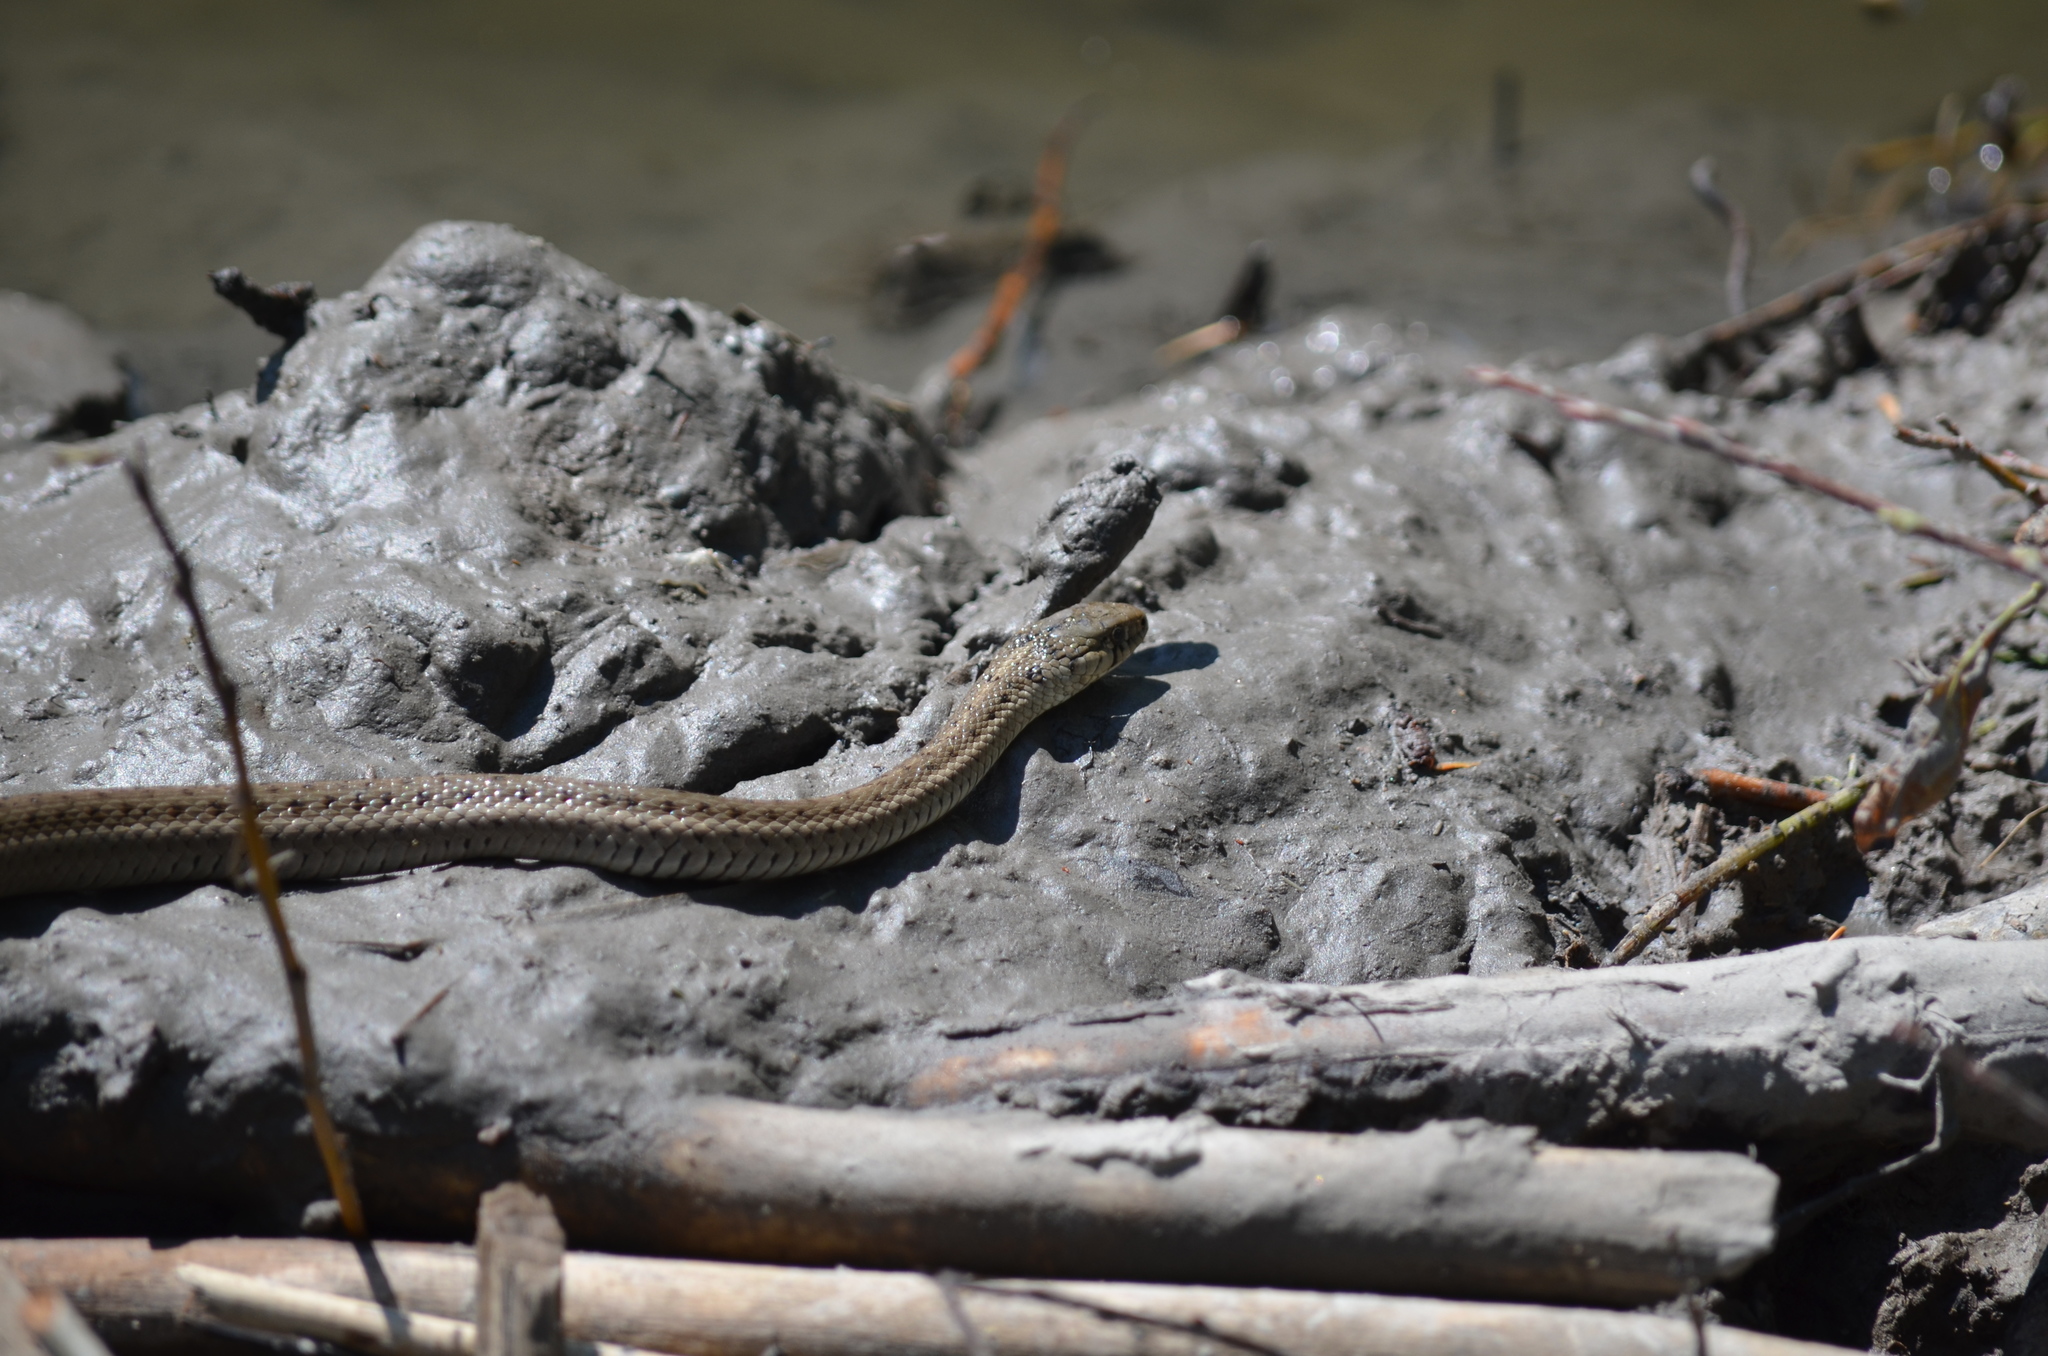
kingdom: Animalia
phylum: Chordata
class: Squamata
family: Colubridae
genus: Thamnophis
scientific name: Thamnophis elegans
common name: Western terrestrial garter snake
